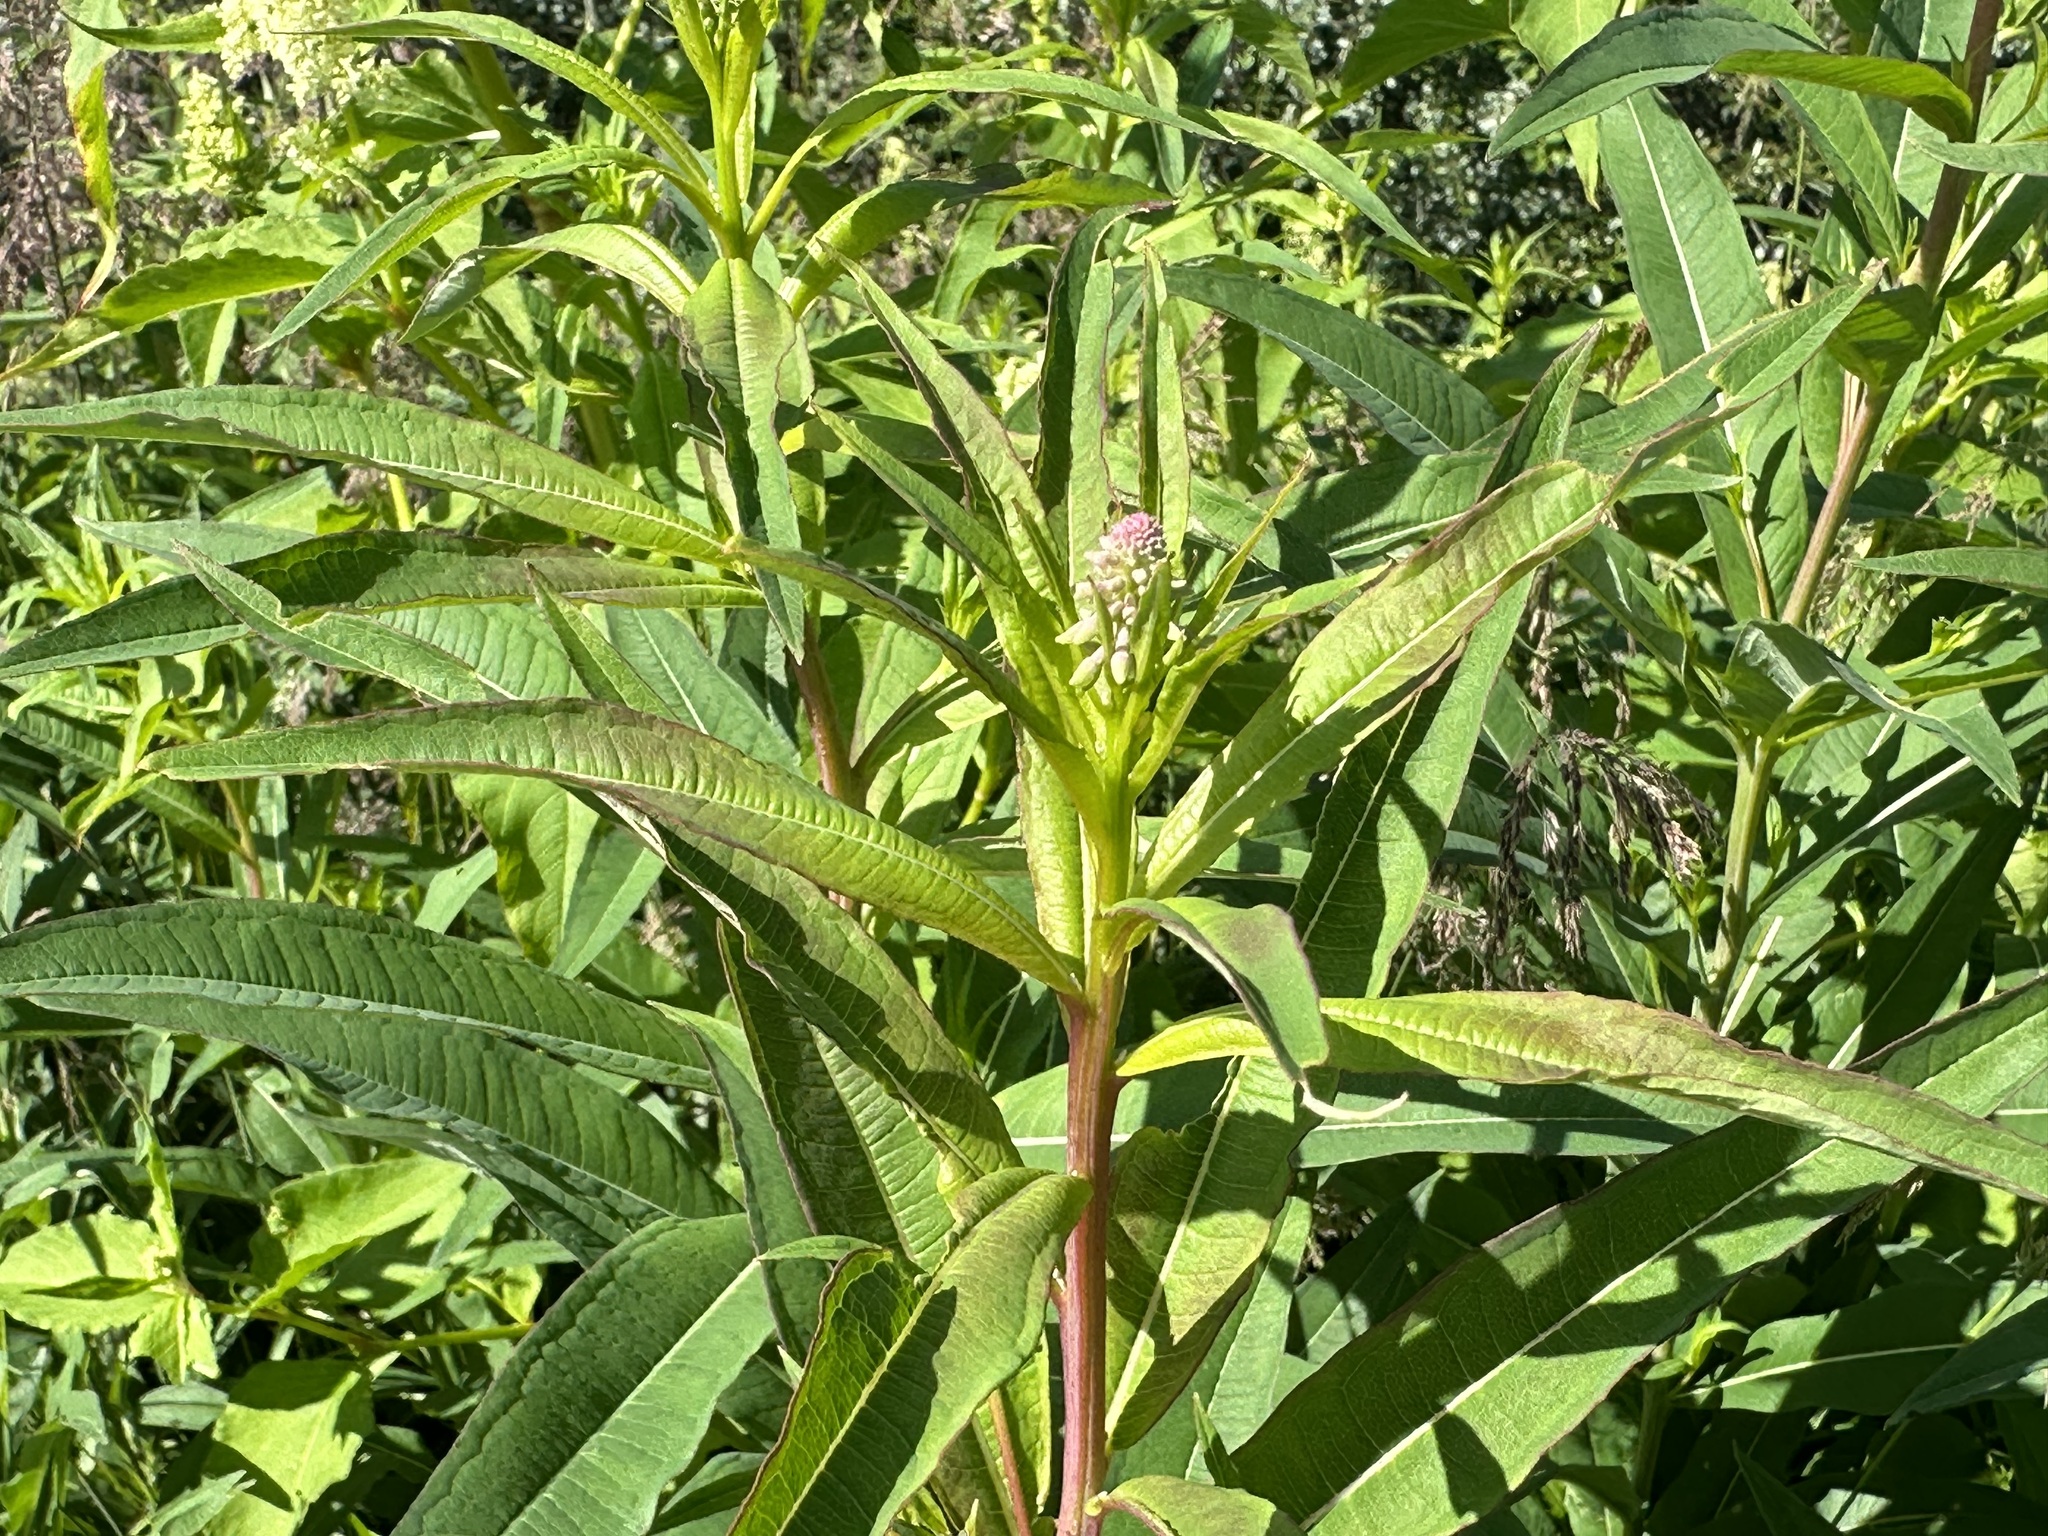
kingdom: Plantae
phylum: Tracheophyta
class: Magnoliopsida
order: Myrtales
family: Onagraceae
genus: Chamaenerion
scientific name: Chamaenerion angustifolium
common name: Fireweed
